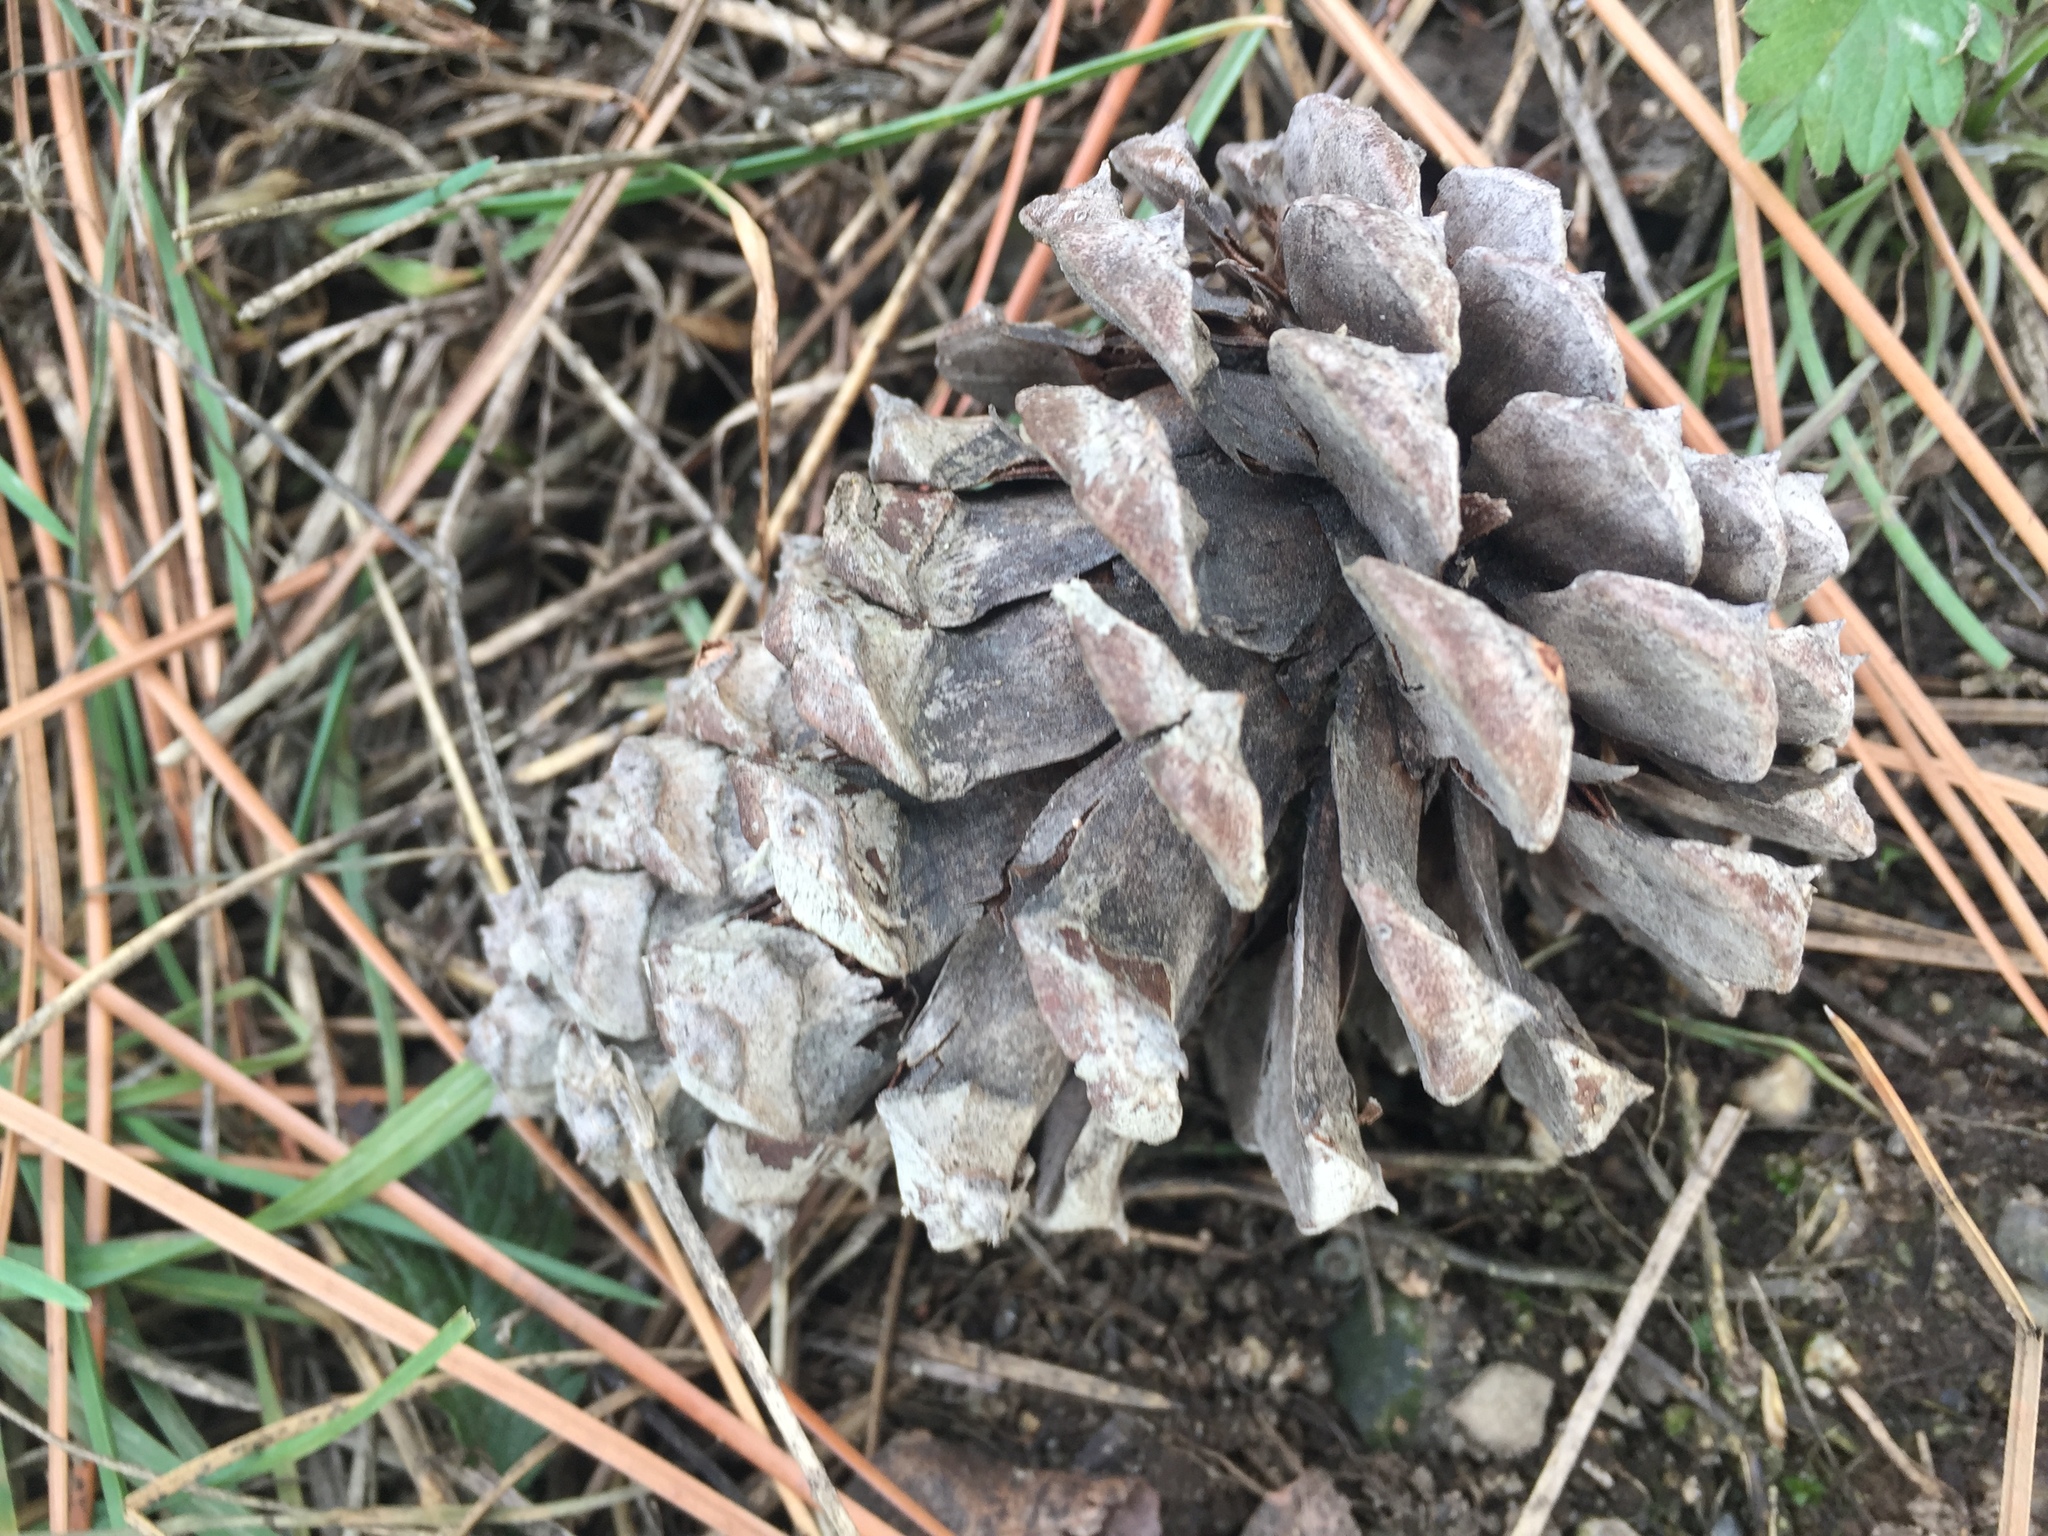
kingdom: Plantae
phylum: Tracheophyta
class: Pinopsida
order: Pinales
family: Pinaceae
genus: Pinus
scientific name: Pinus ponderosa
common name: Western yellow-pine
